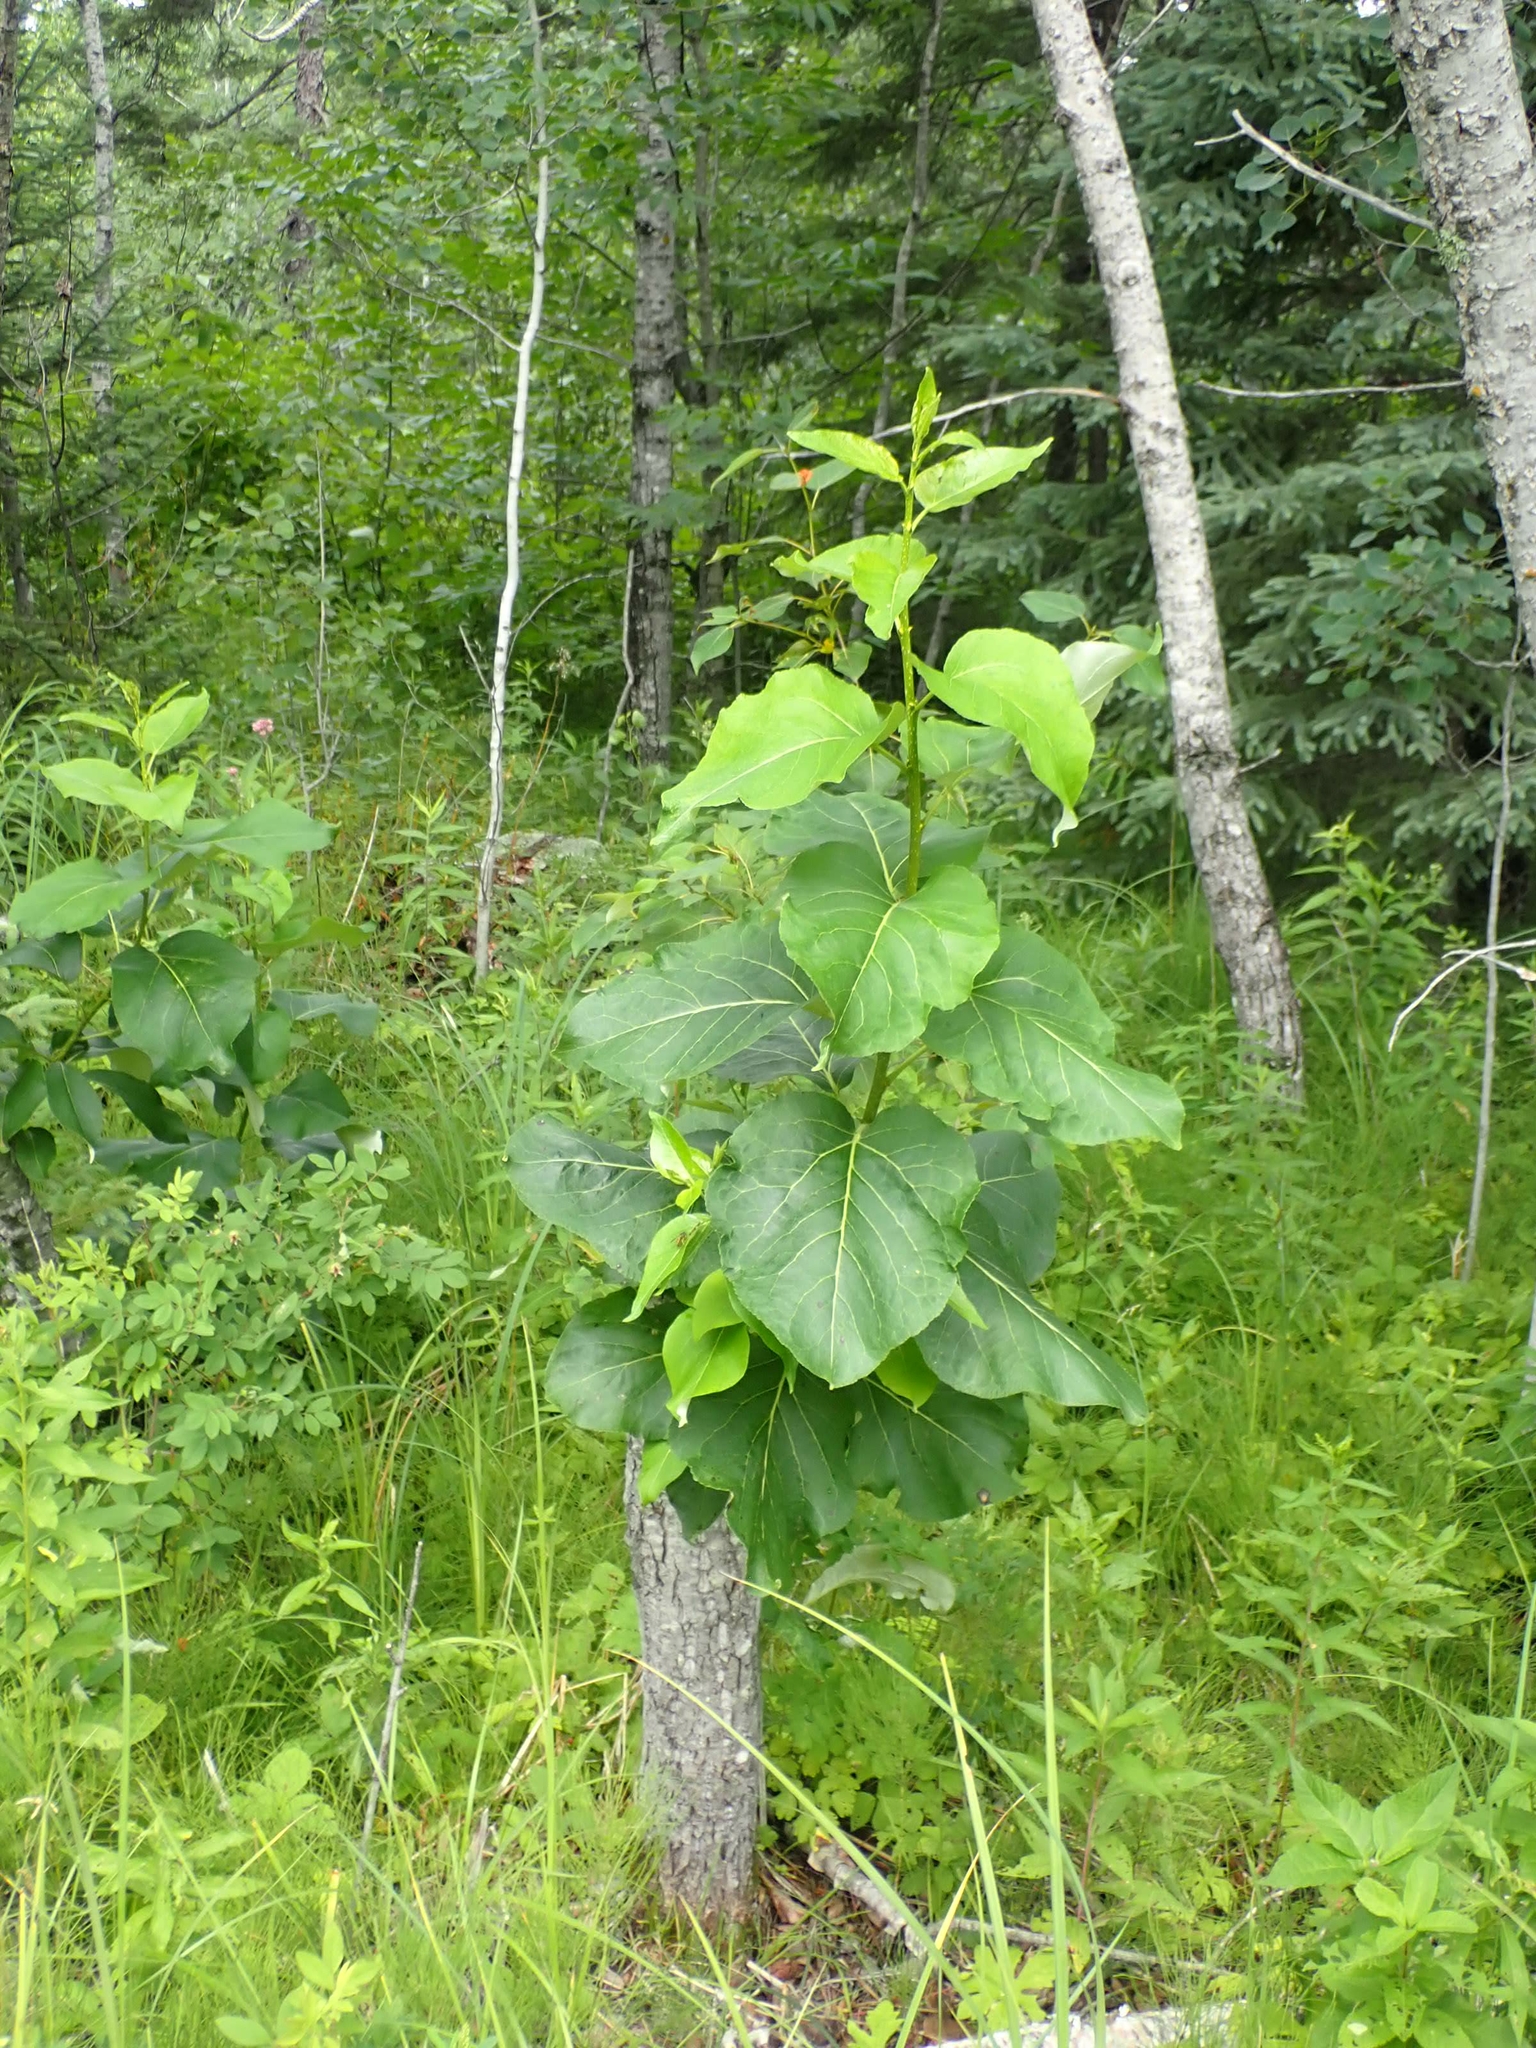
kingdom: Plantae
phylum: Tracheophyta
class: Magnoliopsida
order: Malpighiales
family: Salicaceae
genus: Populus
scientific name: Populus balsamifera
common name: Balsam poplar
